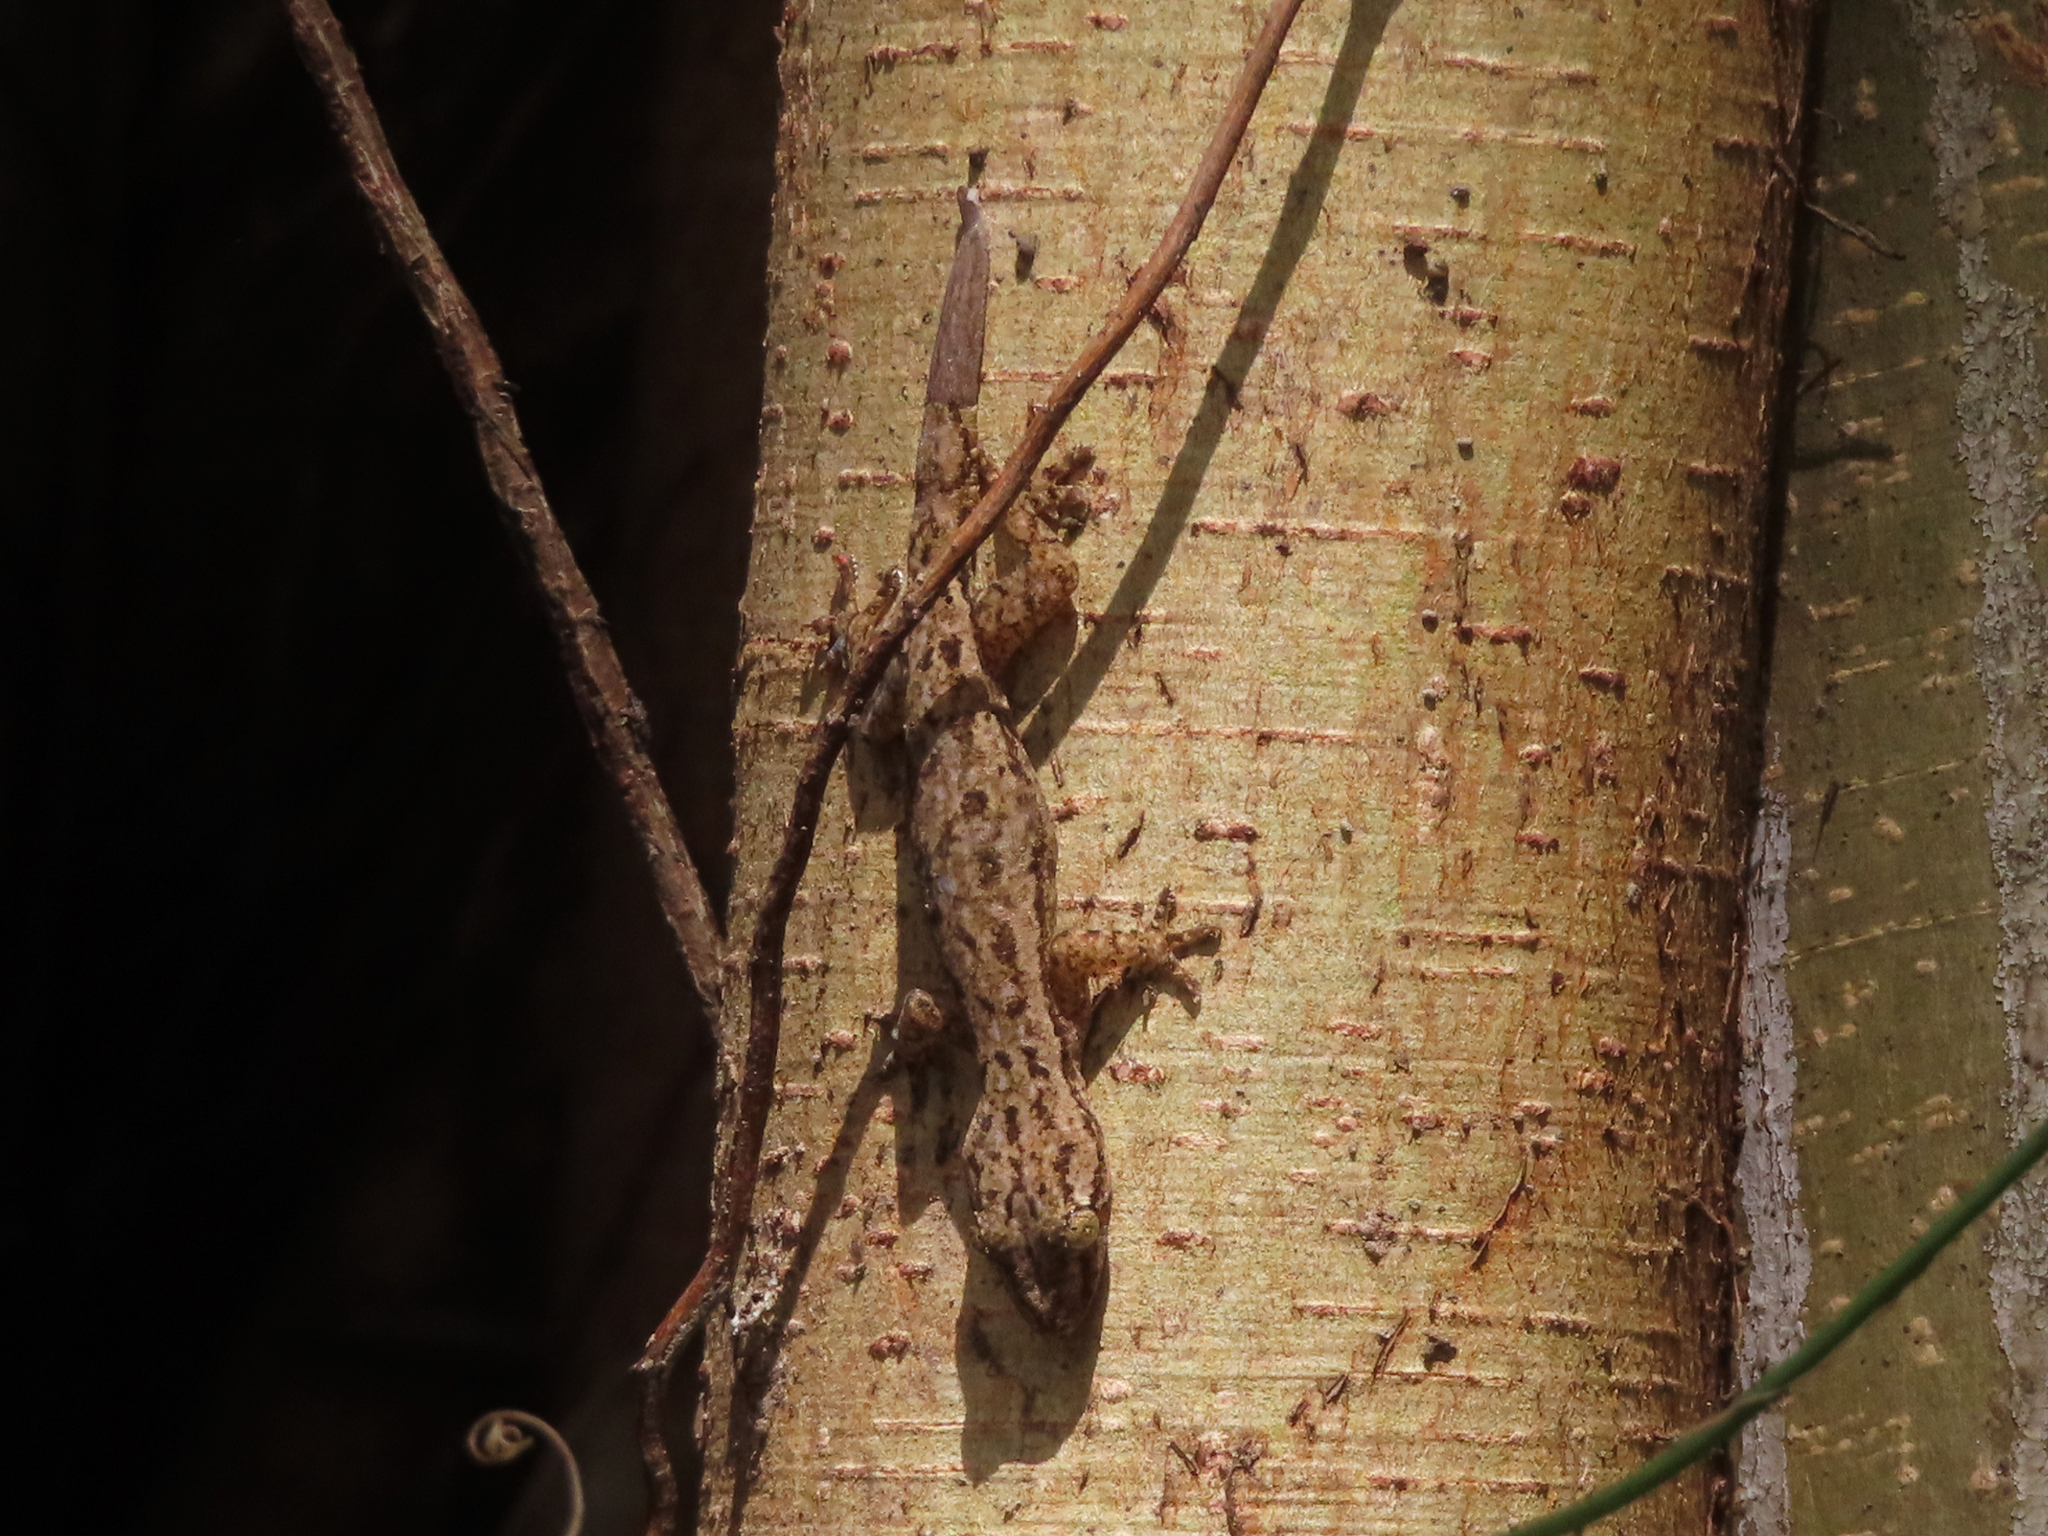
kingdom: Animalia
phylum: Chordata
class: Squamata
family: Gekkonidae
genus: Hemidactylus
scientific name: Hemidactylus frenatus
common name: Common house gecko
